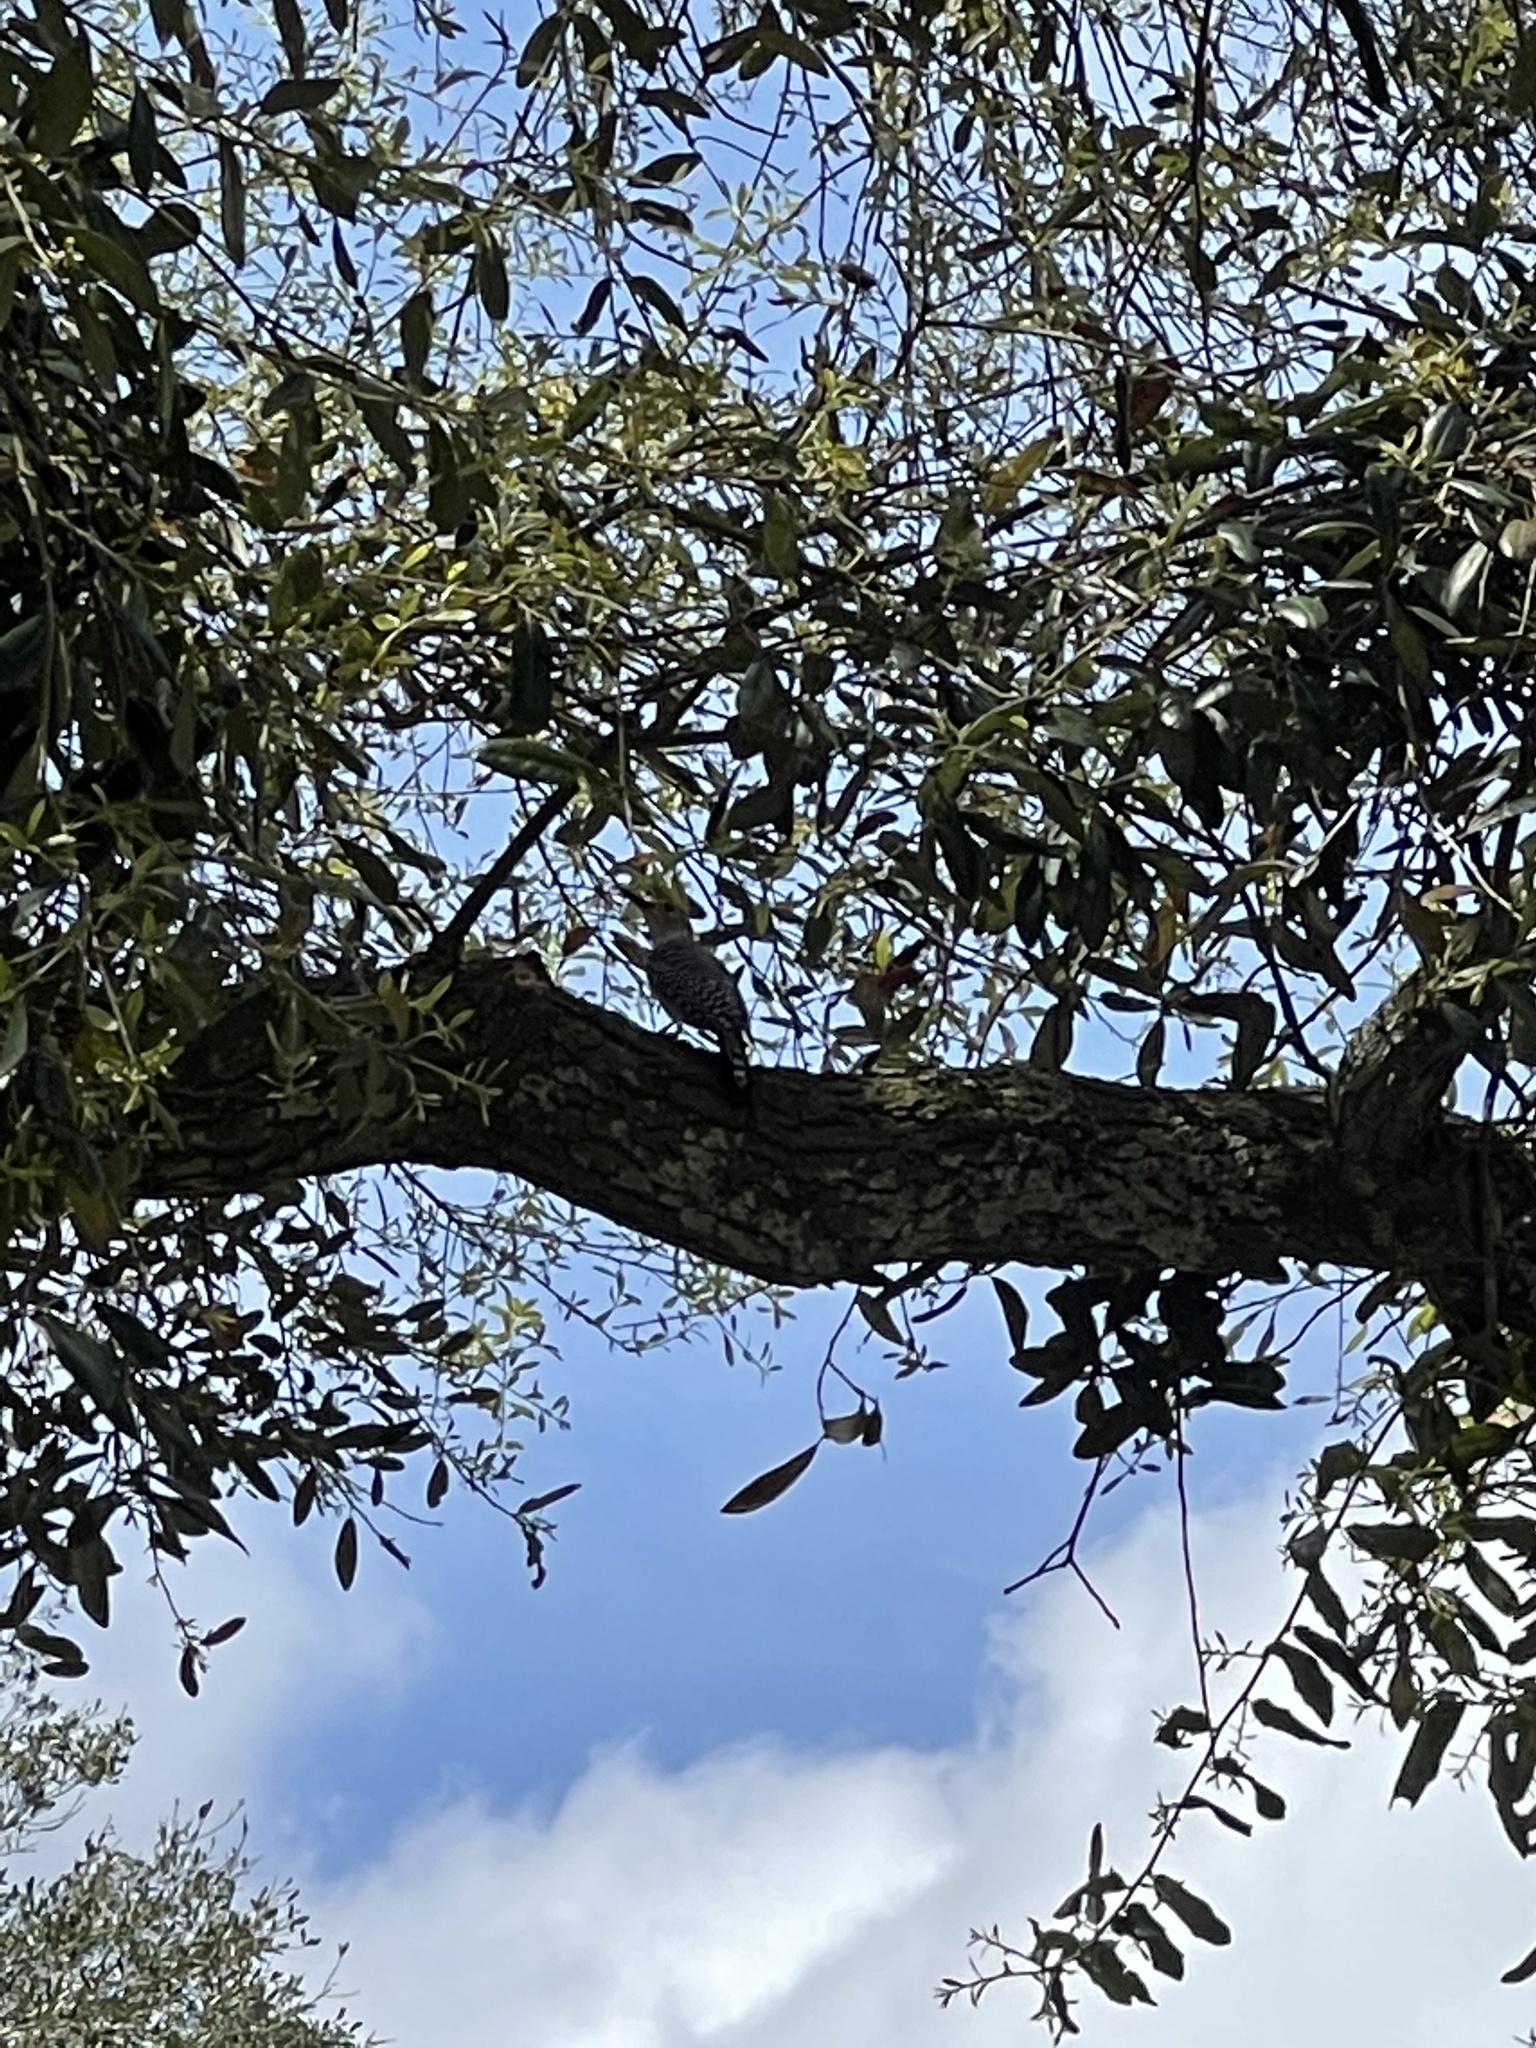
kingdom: Animalia
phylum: Chordata
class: Aves
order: Piciformes
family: Picidae
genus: Melanerpes
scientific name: Melanerpes carolinus
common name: Red-bellied woodpecker
